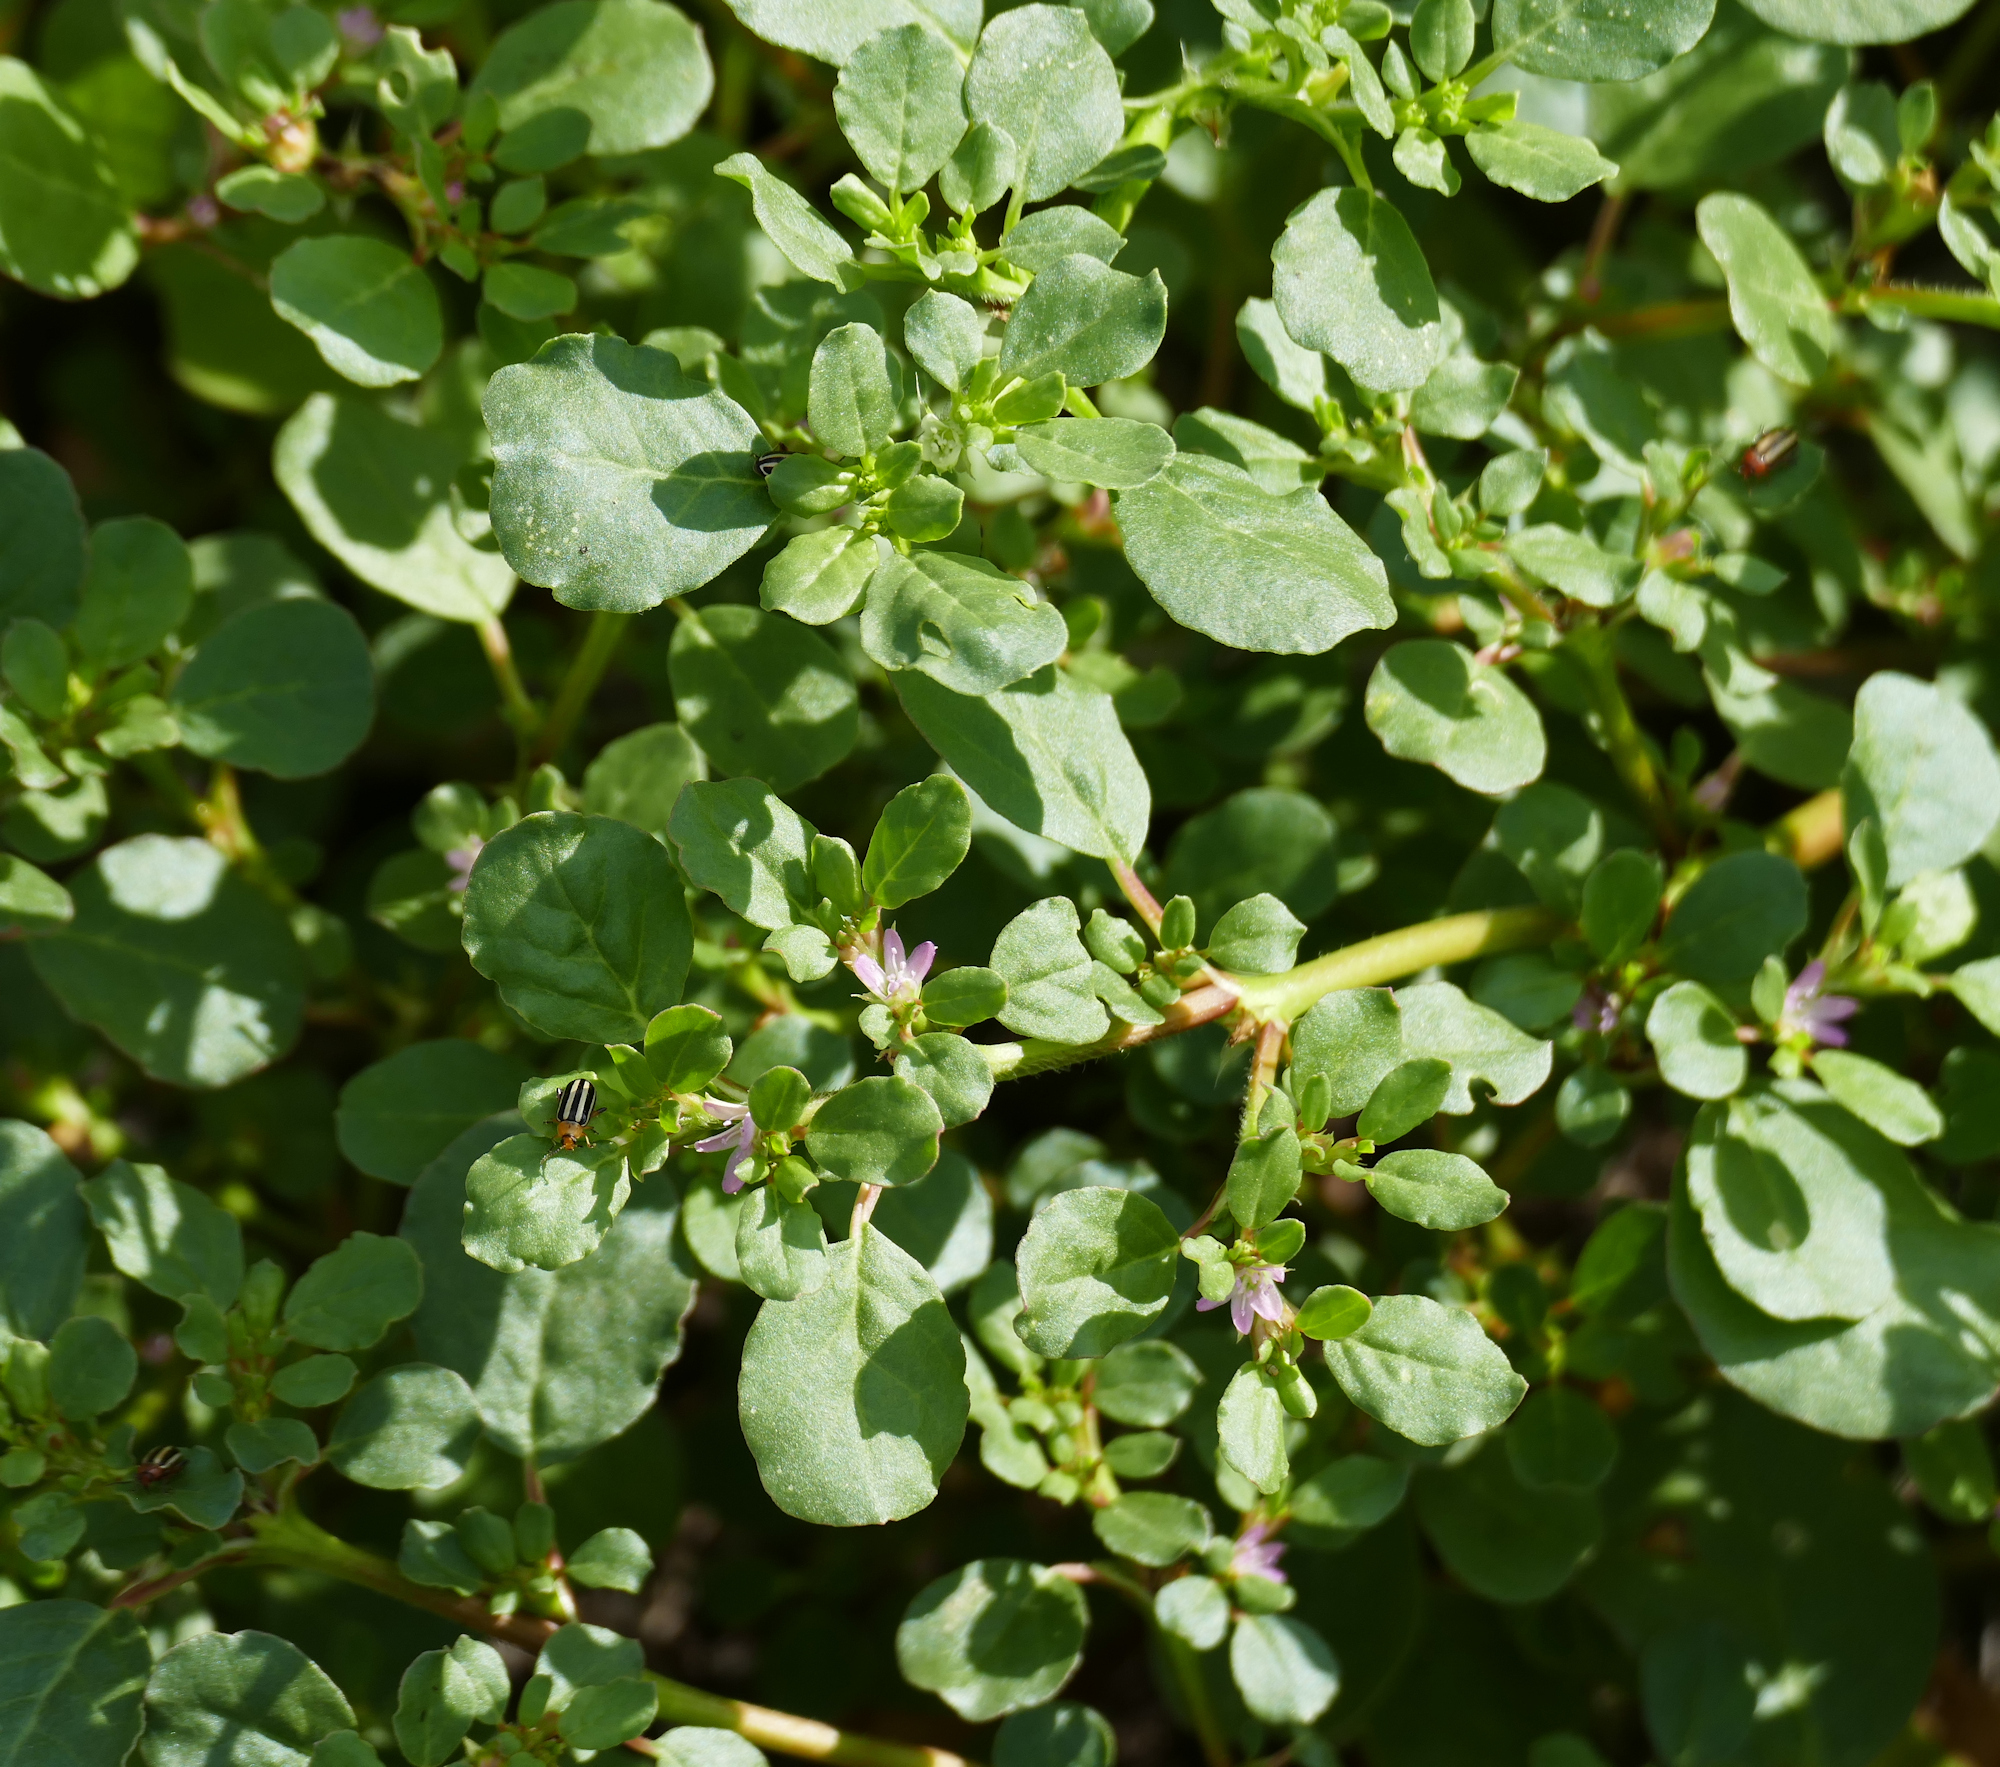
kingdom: Plantae
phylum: Tracheophyta
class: Magnoliopsida
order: Caryophyllales
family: Aizoaceae
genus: Trianthema
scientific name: Trianthema portulacastrum
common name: Desert horsepurslane
